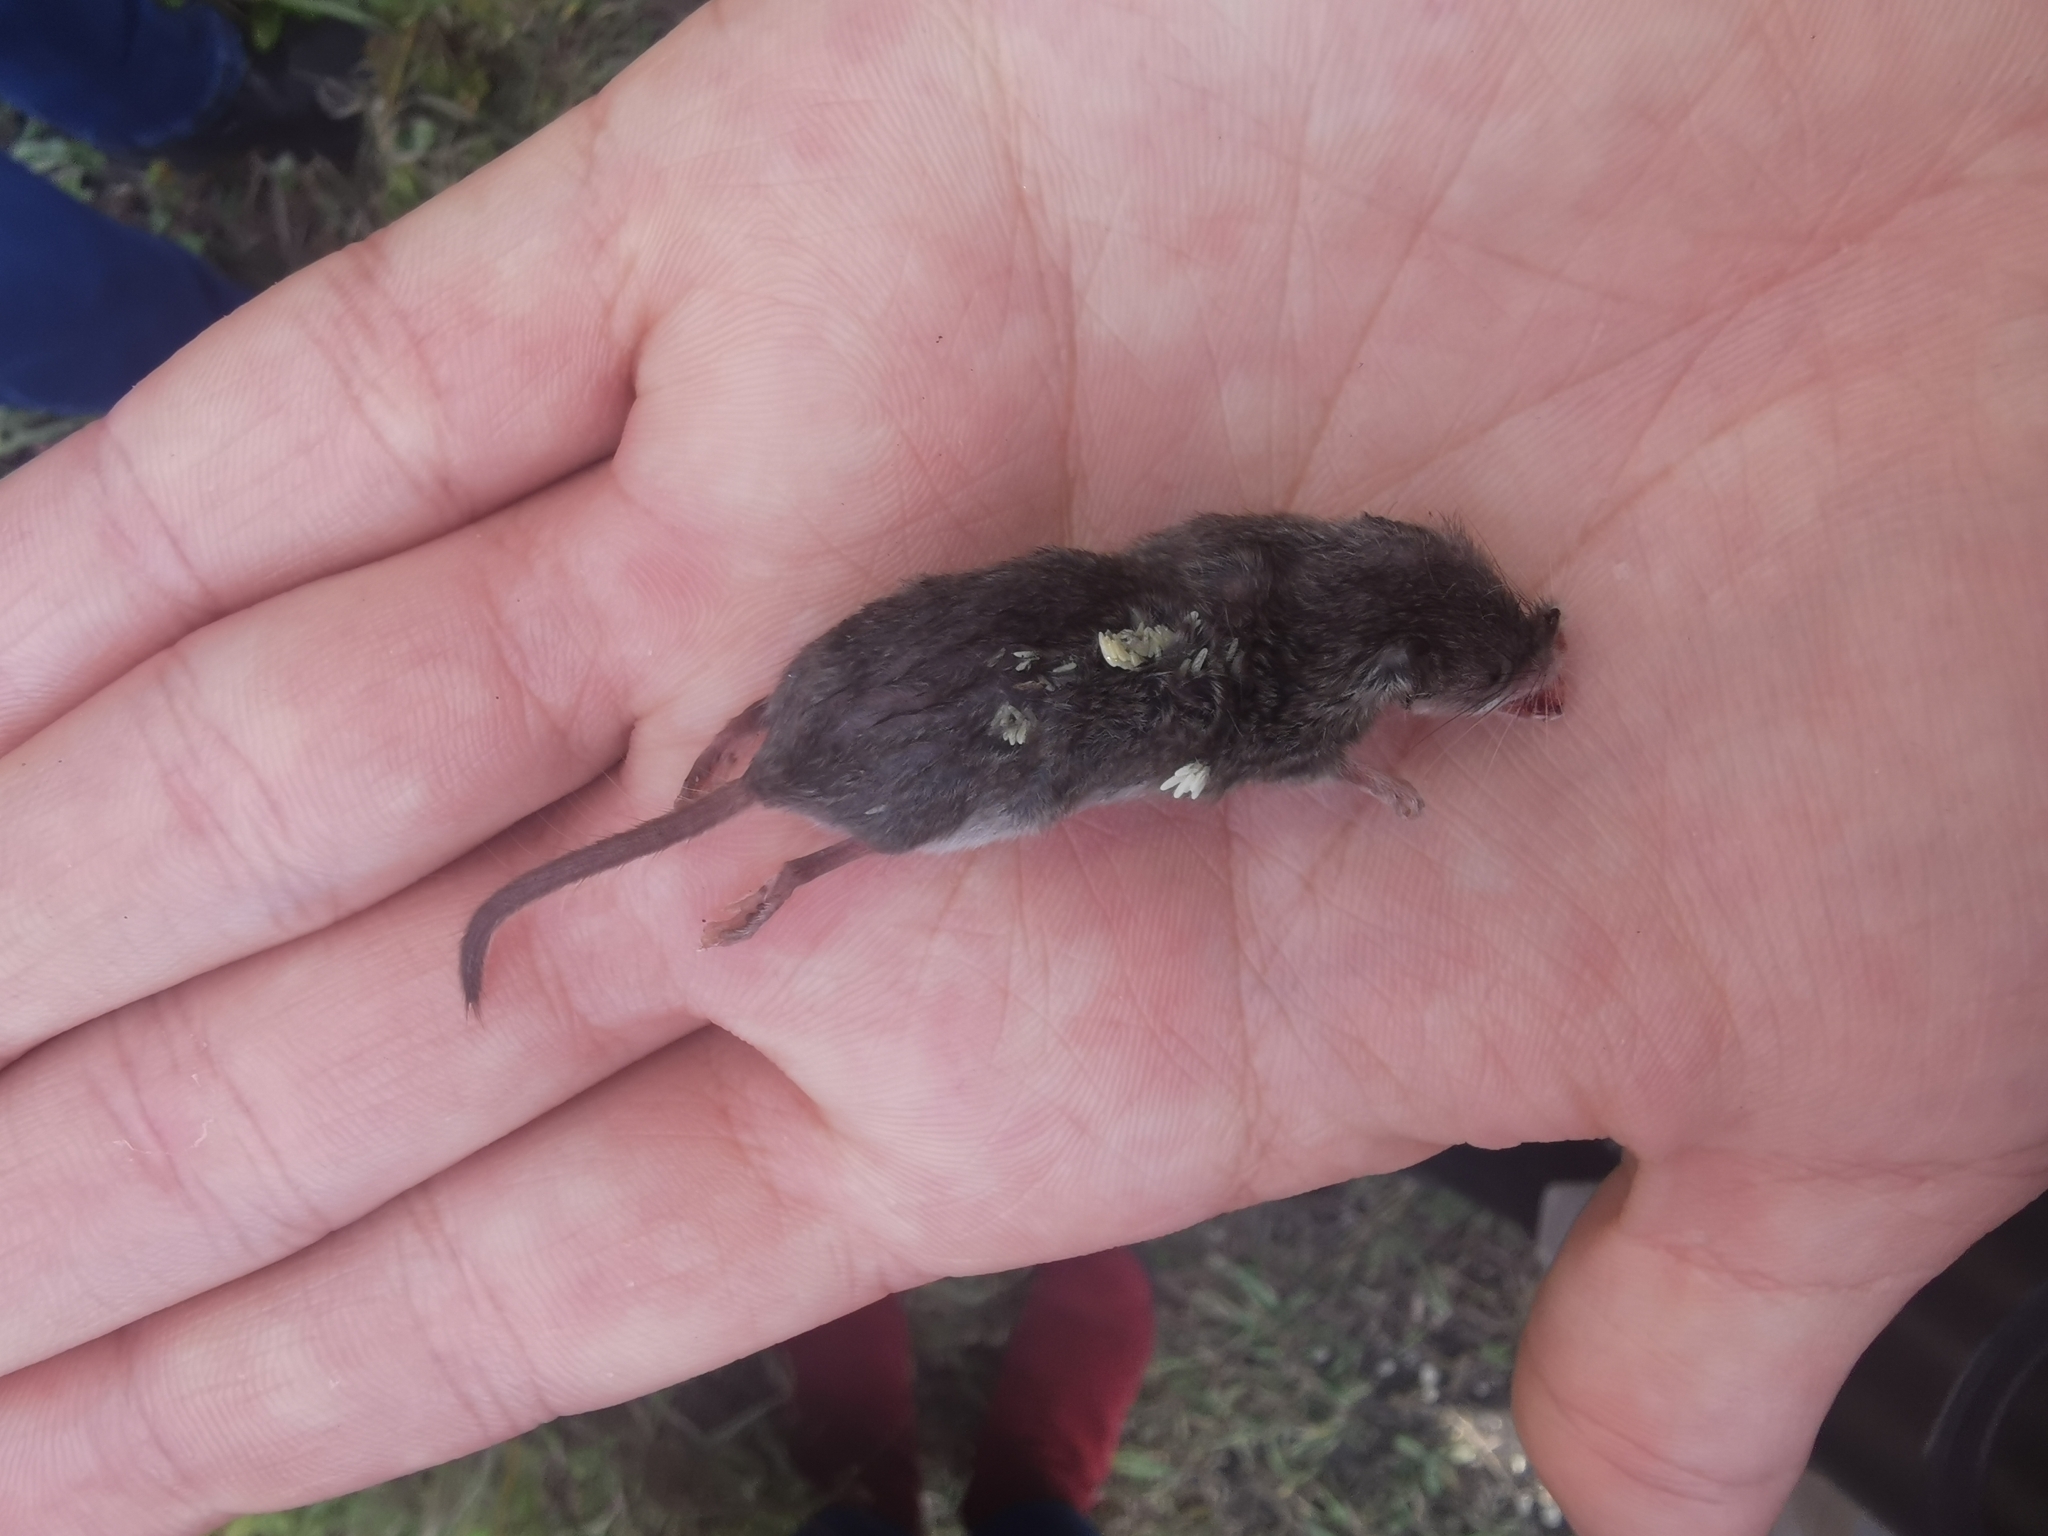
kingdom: Animalia
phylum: Chordata
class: Mammalia
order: Soricomorpha
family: Soricidae
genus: Crocidura
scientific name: Crocidura suaveolens
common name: Lesser white-toothed shrew
